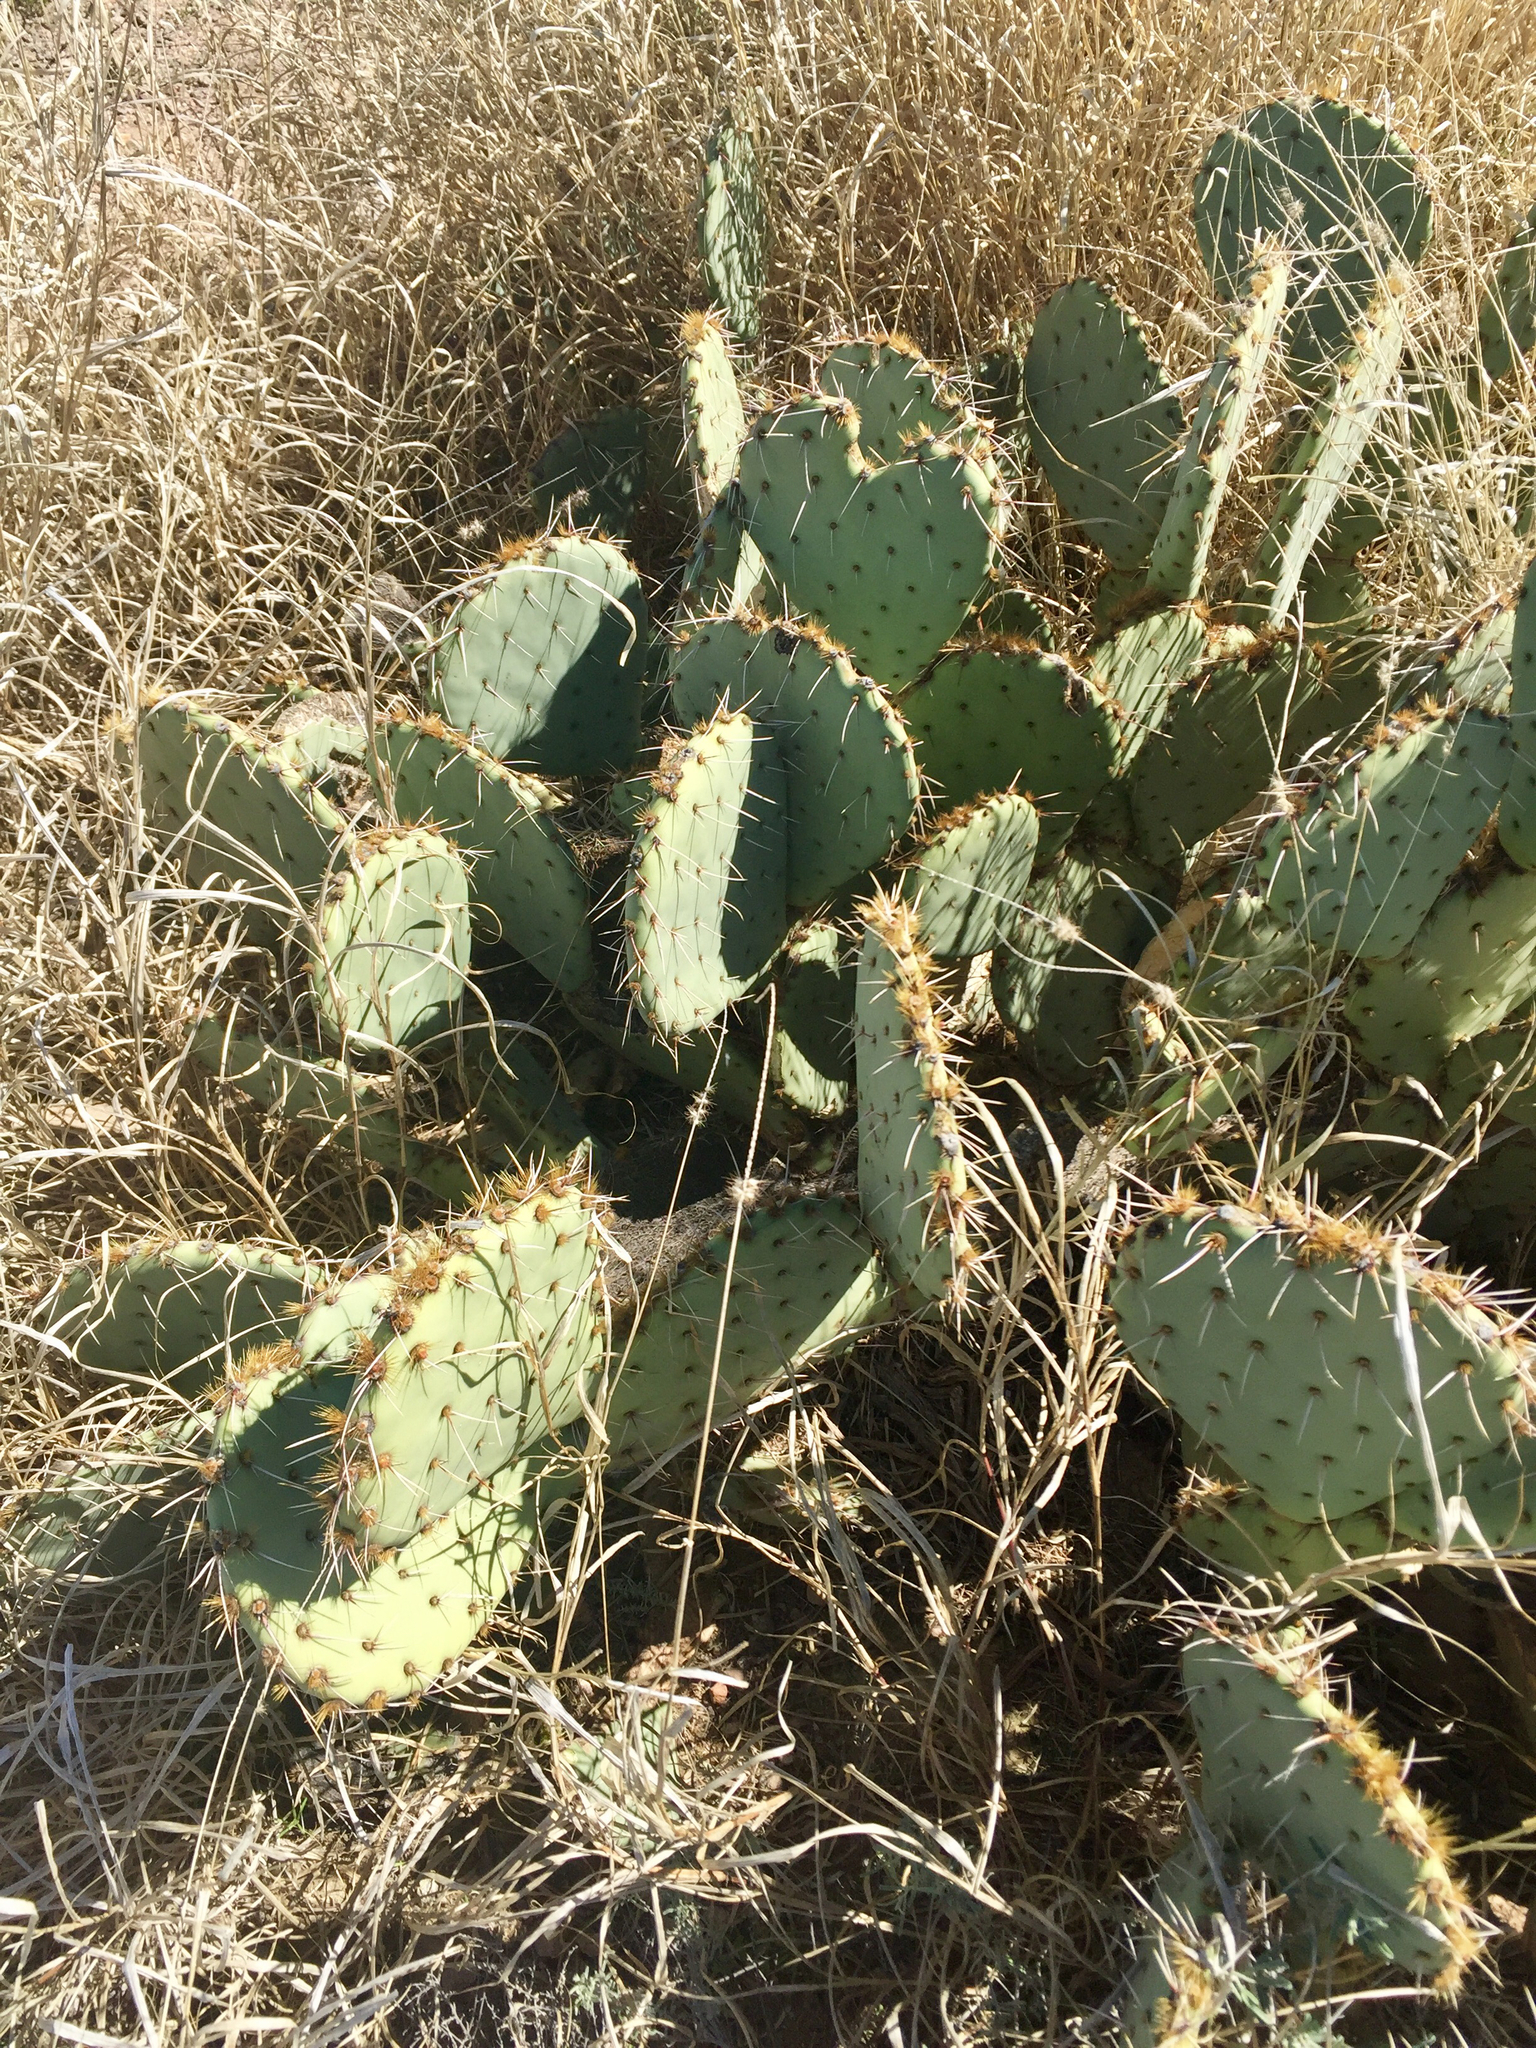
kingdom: Plantae
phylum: Tracheophyta
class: Magnoliopsida
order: Caryophyllales
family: Cactaceae
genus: Opuntia
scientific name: Opuntia engelmannii
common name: Cactus-apple
